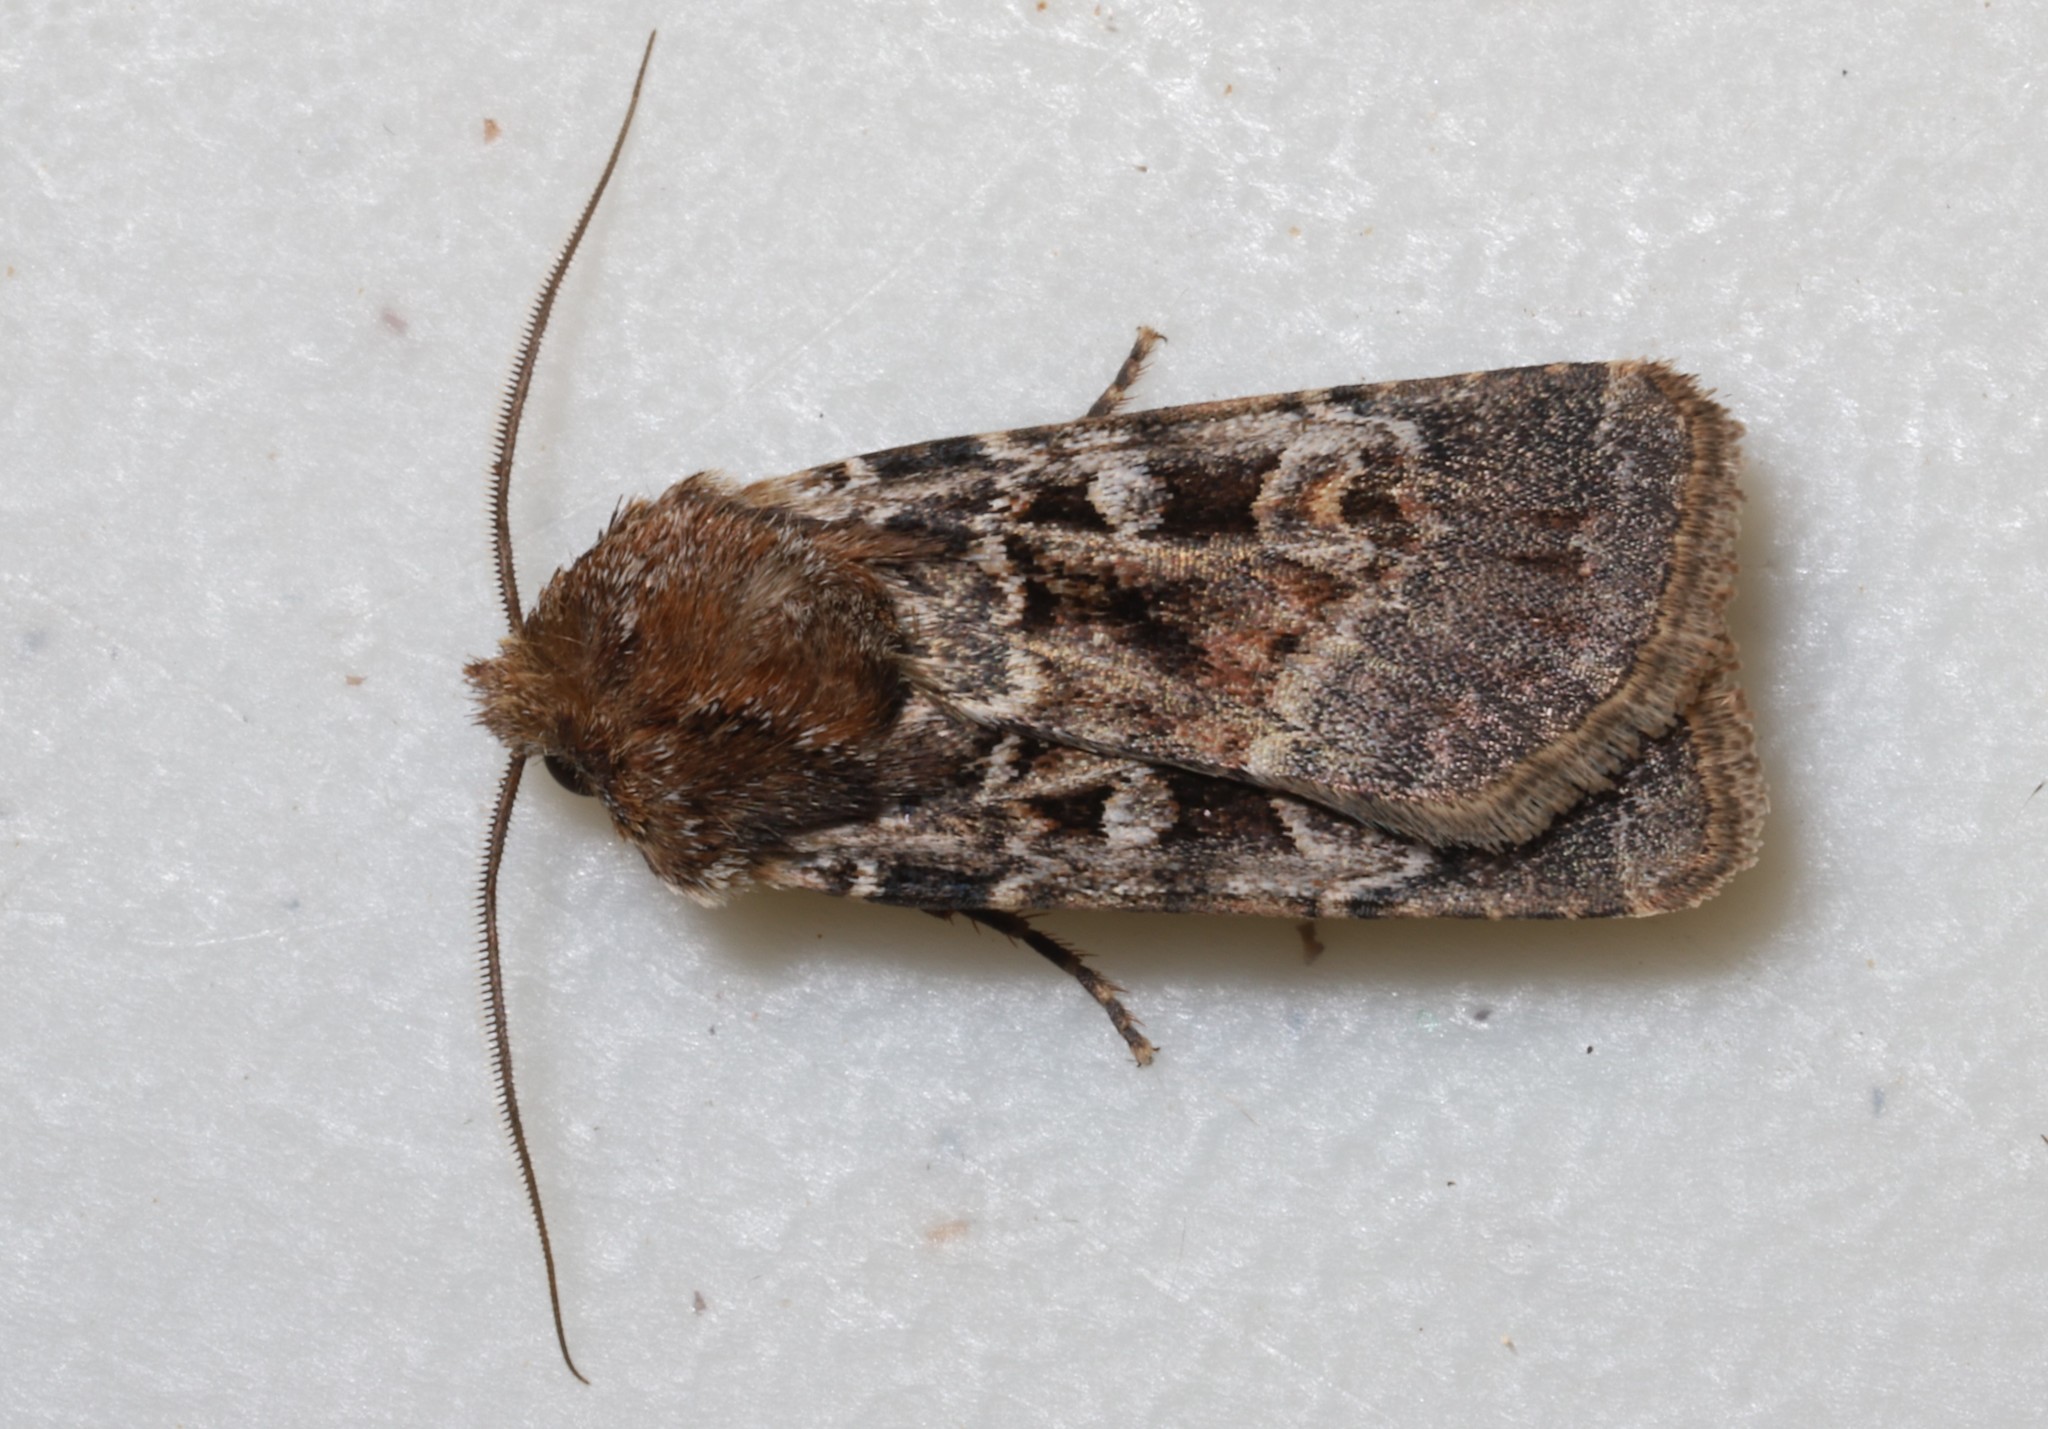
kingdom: Animalia
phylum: Arthropoda
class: Insecta
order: Lepidoptera
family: Noctuidae
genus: Euxoa
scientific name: Euxoa intrita
